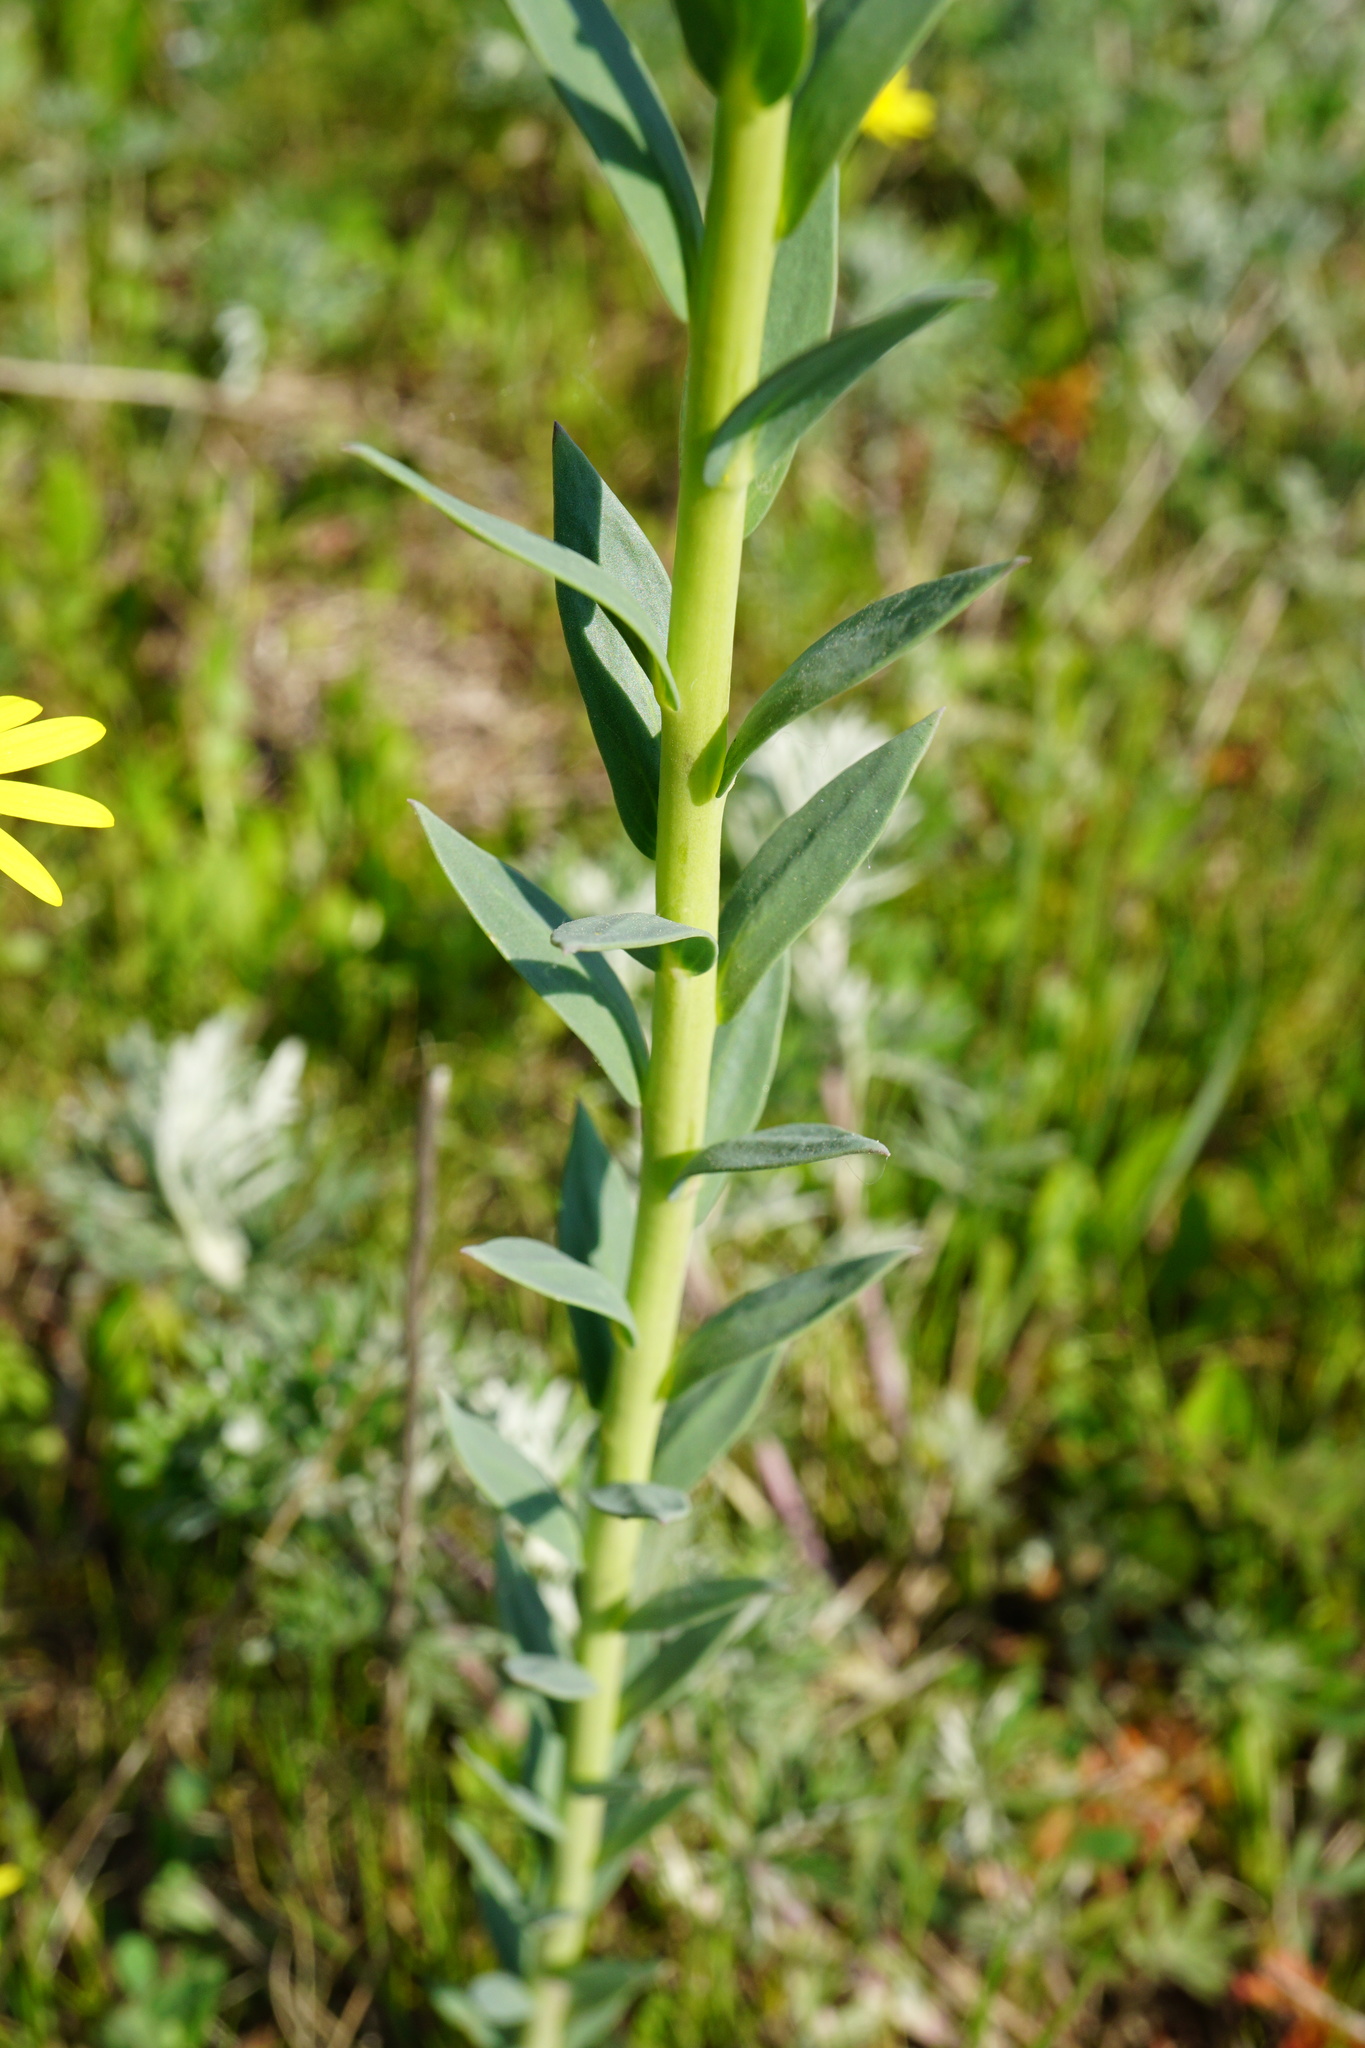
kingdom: Plantae
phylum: Tracheophyta
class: Magnoliopsida
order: Lamiales
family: Plantaginaceae
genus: Linaria
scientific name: Linaria genistifolia
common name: Broomleaf toadflax
